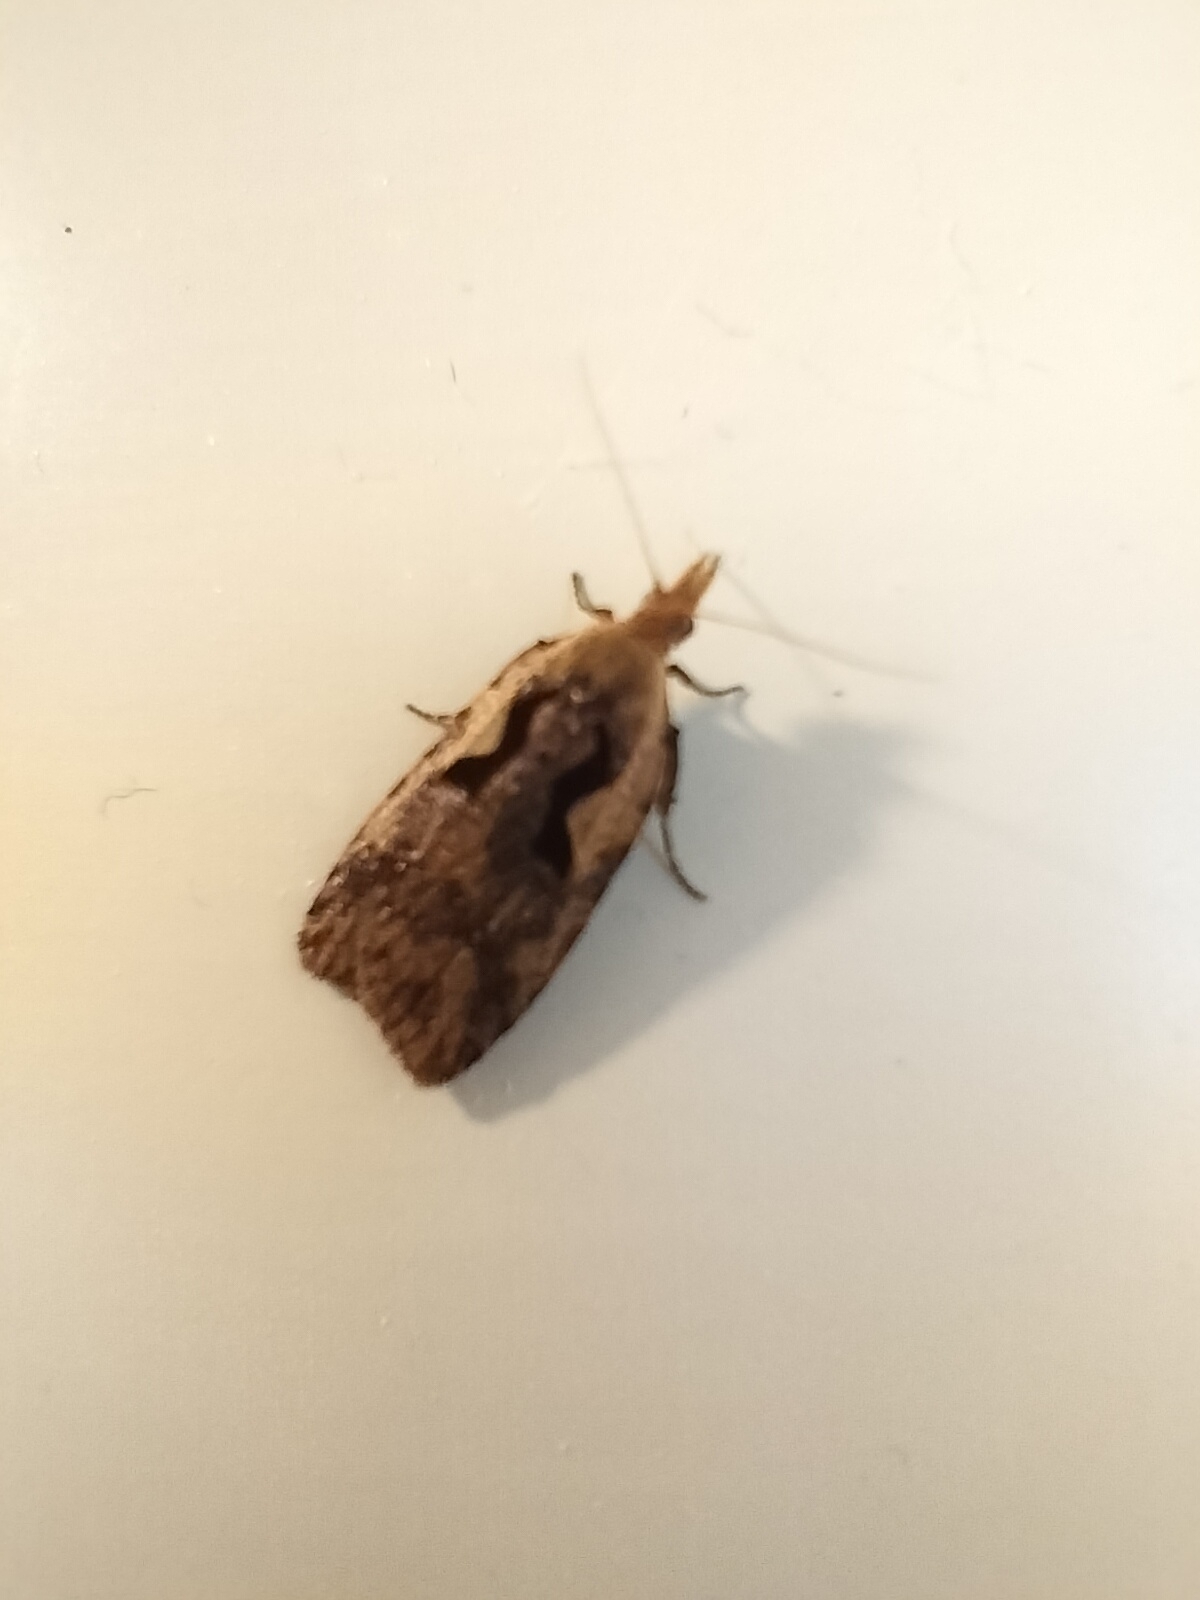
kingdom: Animalia
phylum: Arthropoda
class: Insecta
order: Lepidoptera
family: Tortricidae
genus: Cnephasia
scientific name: Cnephasia jactatana
